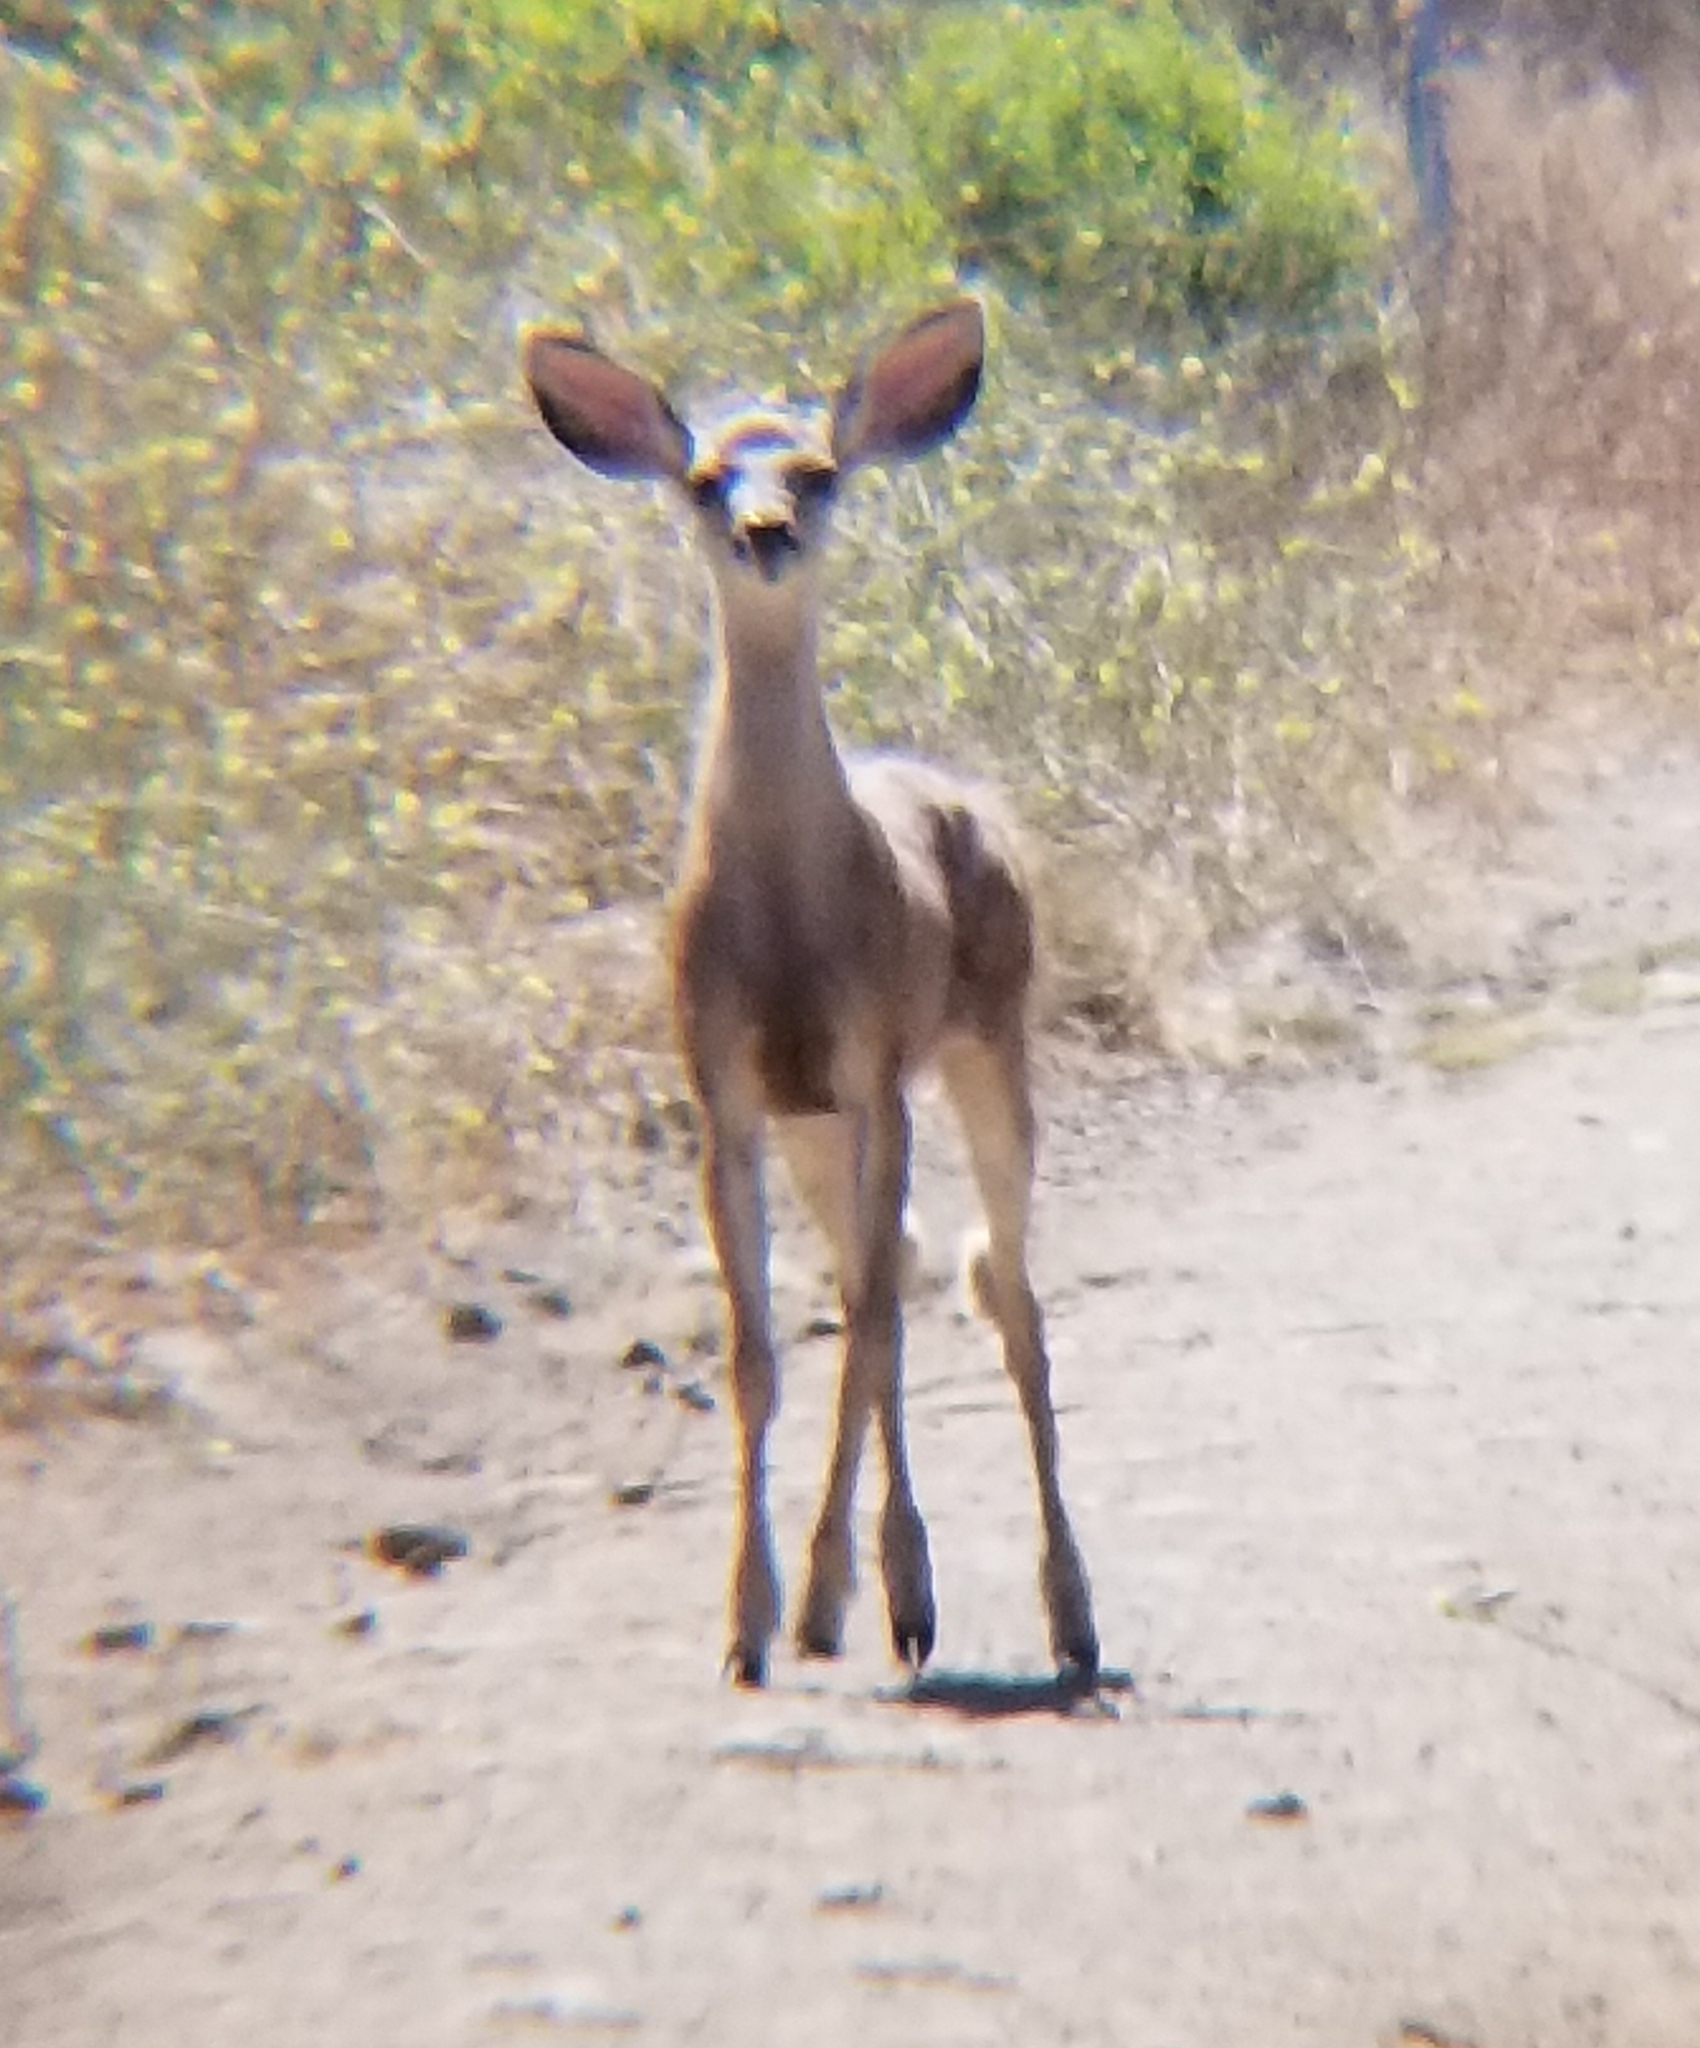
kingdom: Animalia
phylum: Chordata
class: Mammalia
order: Artiodactyla
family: Cervidae
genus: Odocoileus
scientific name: Odocoileus hemionus
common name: Mule deer
